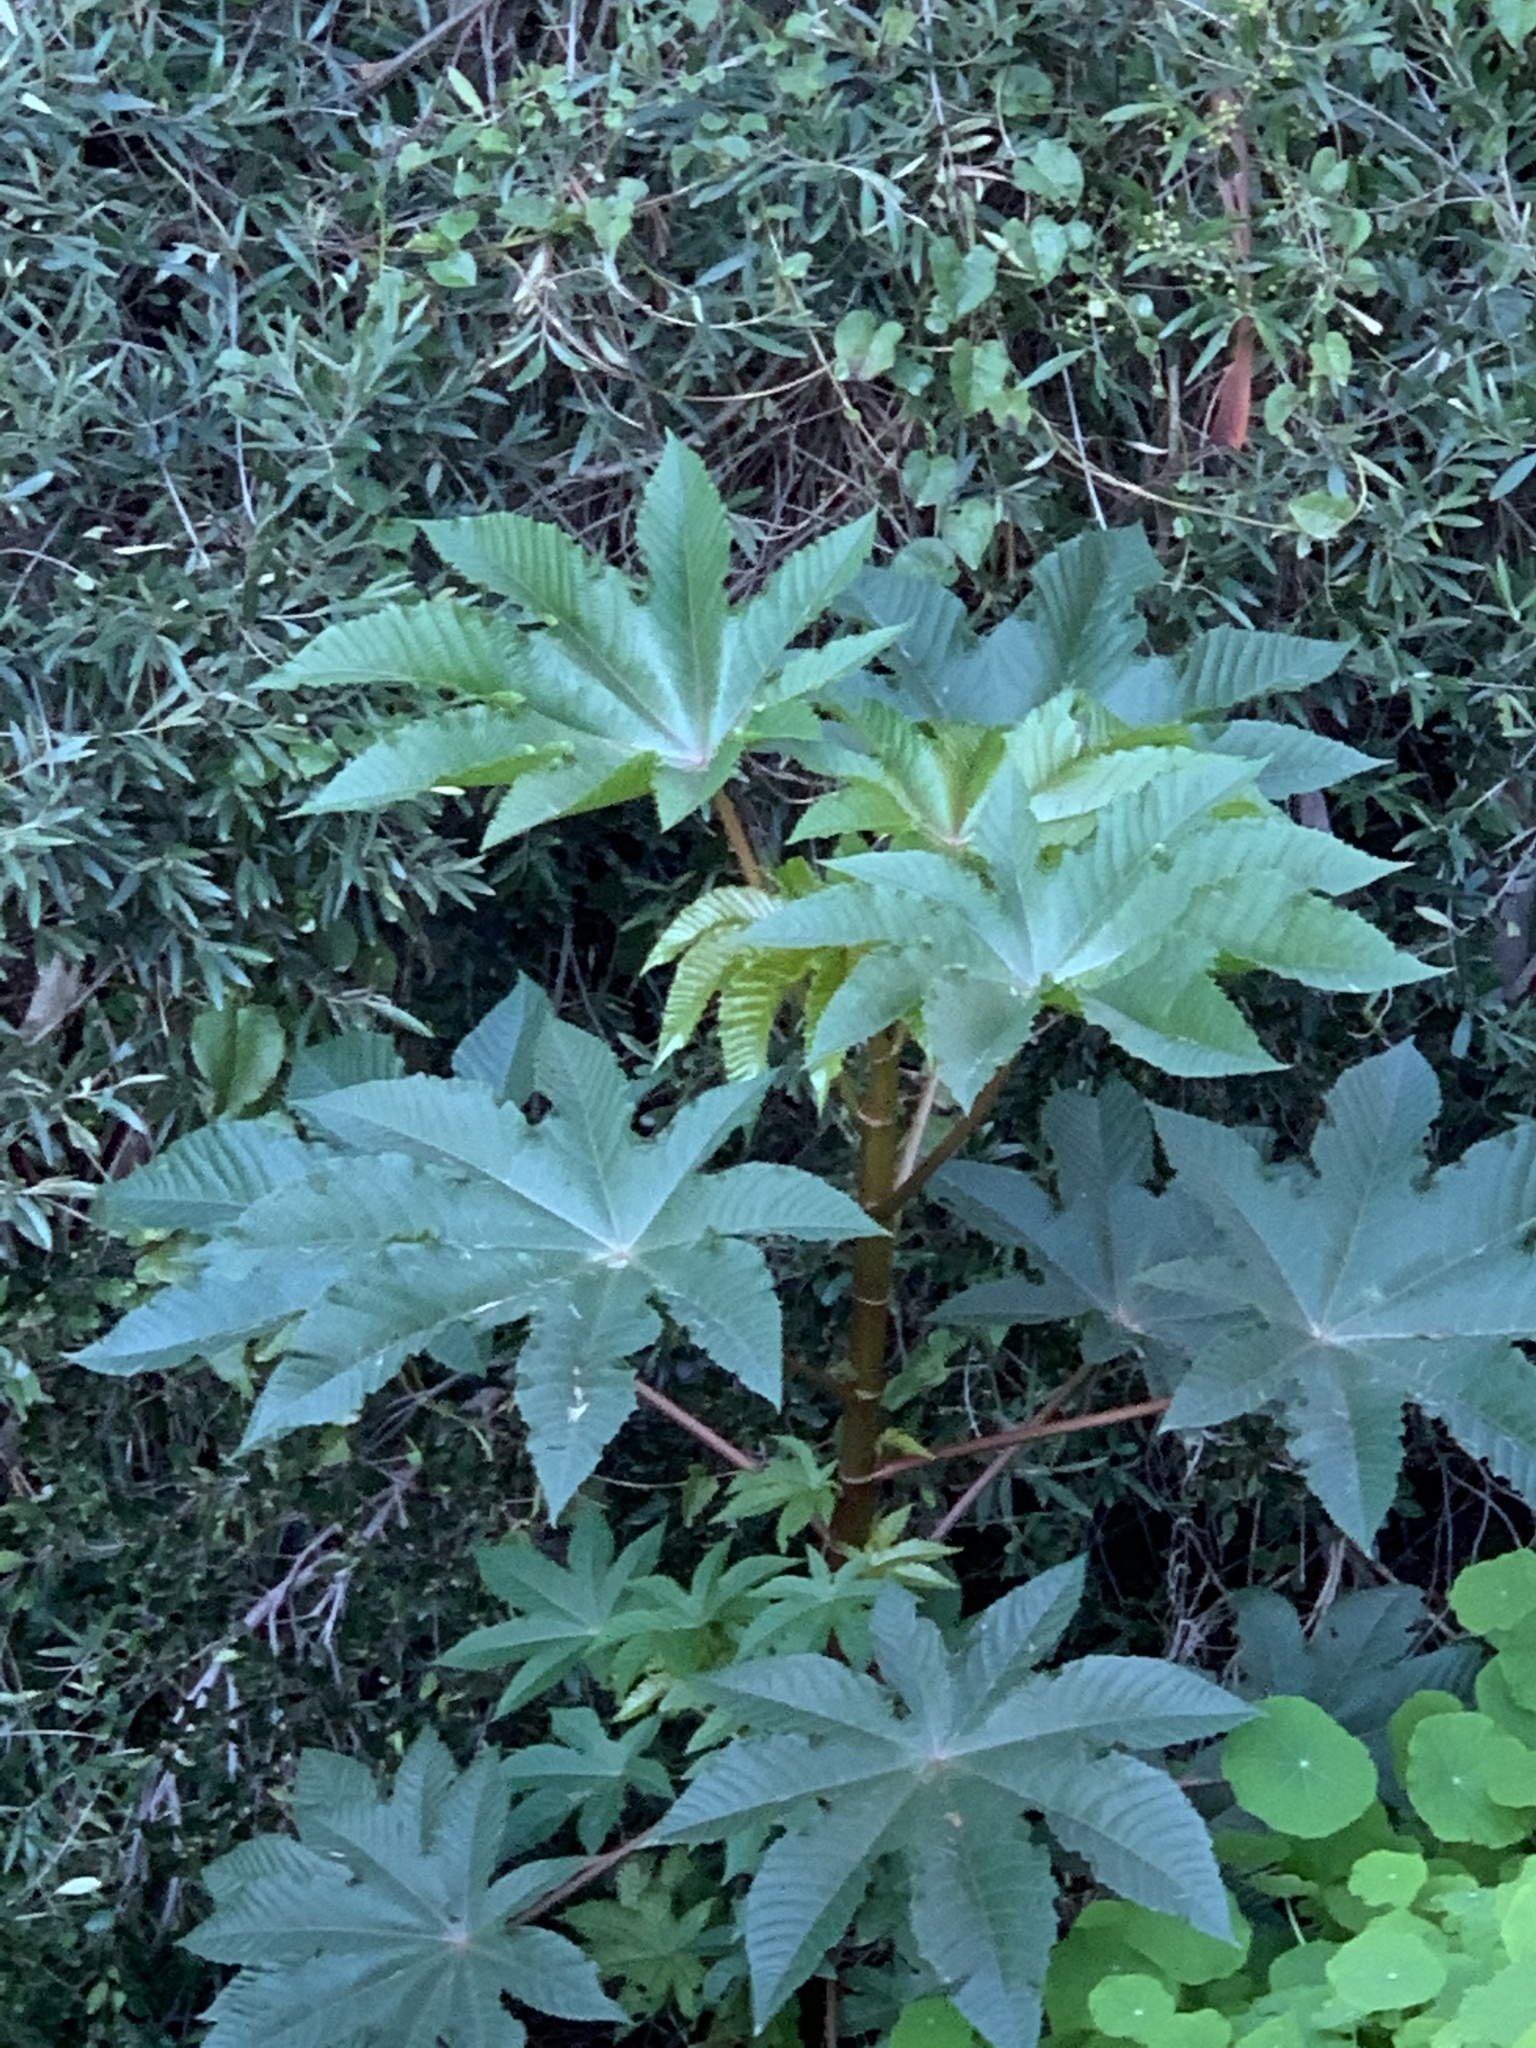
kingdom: Plantae
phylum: Tracheophyta
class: Magnoliopsida
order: Malpighiales
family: Euphorbiaceae
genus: Ricinus
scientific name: Ricinus communis
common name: Castor-oil-plant
